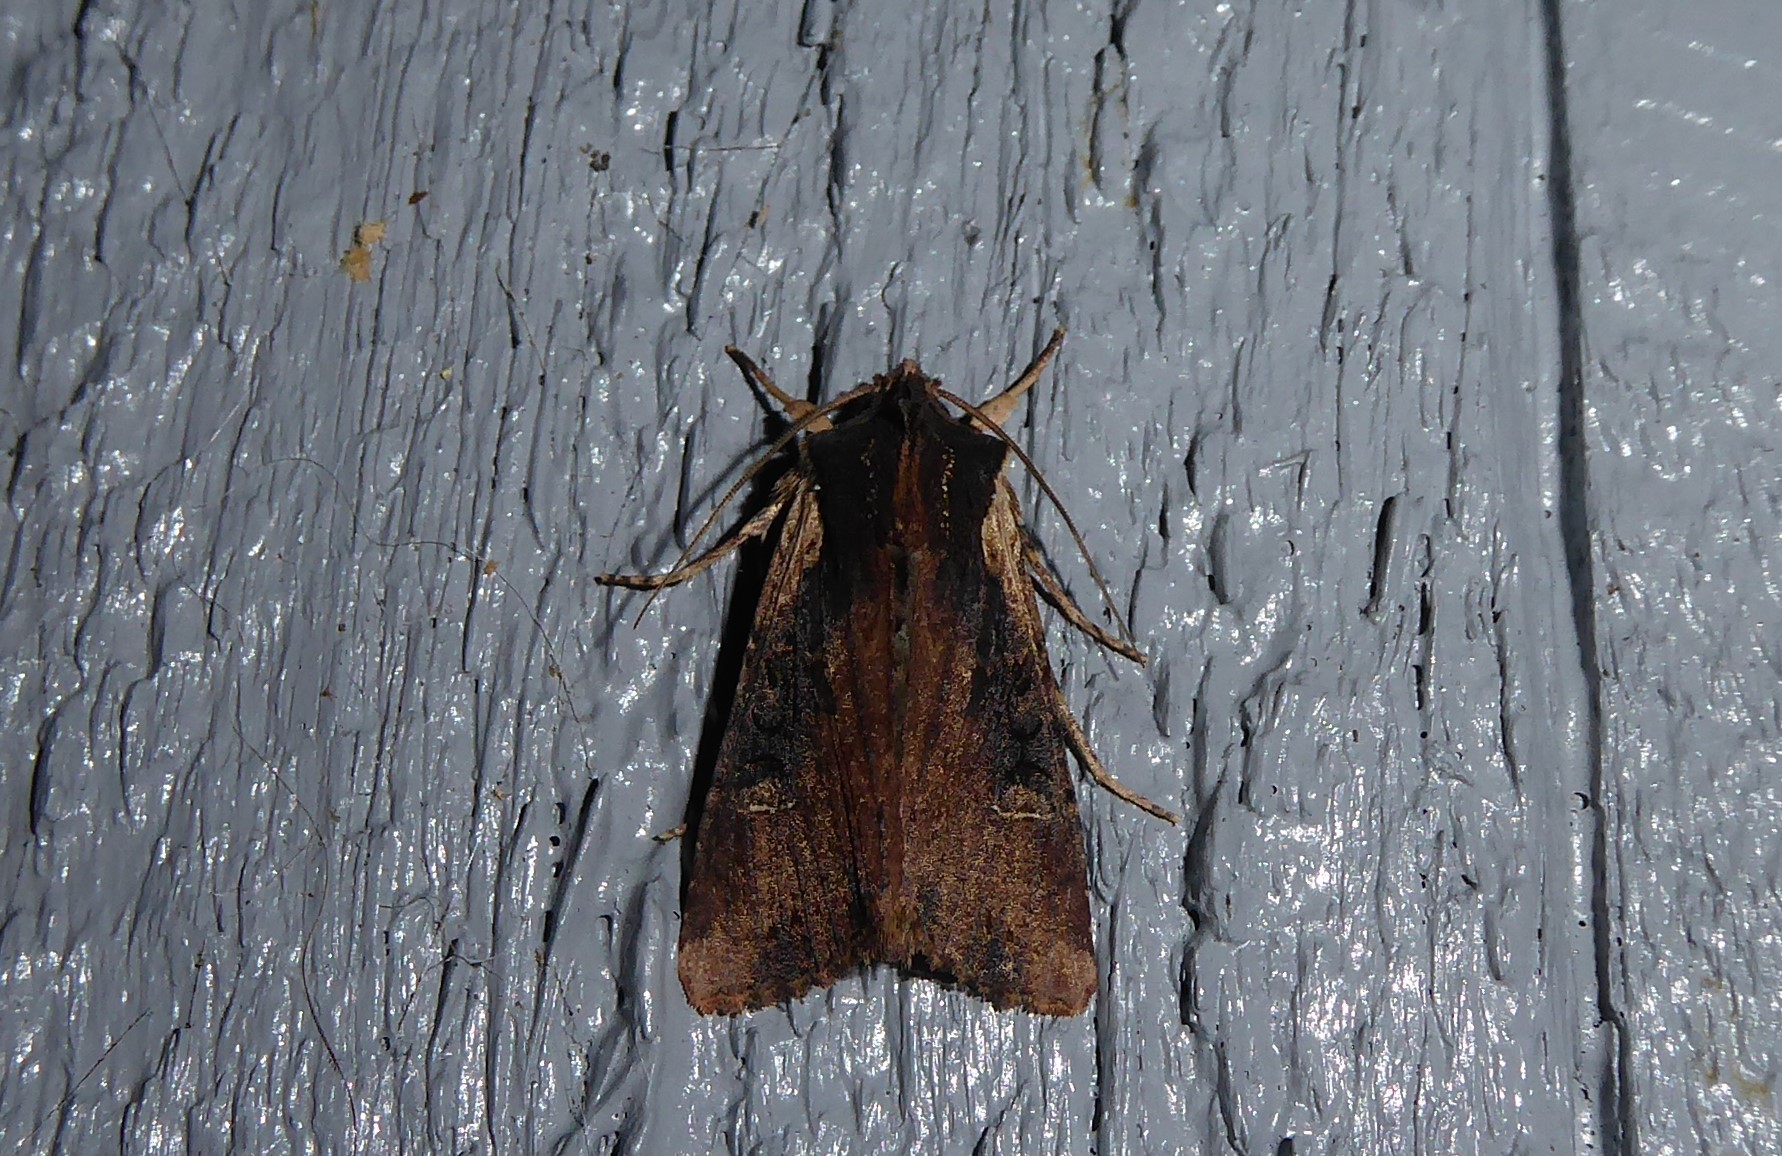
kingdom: Animalia
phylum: Arthropoda
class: Insecta
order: Lepidoptera
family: Noctuidae
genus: Ichneutica
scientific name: Ichneutica omoplaca
